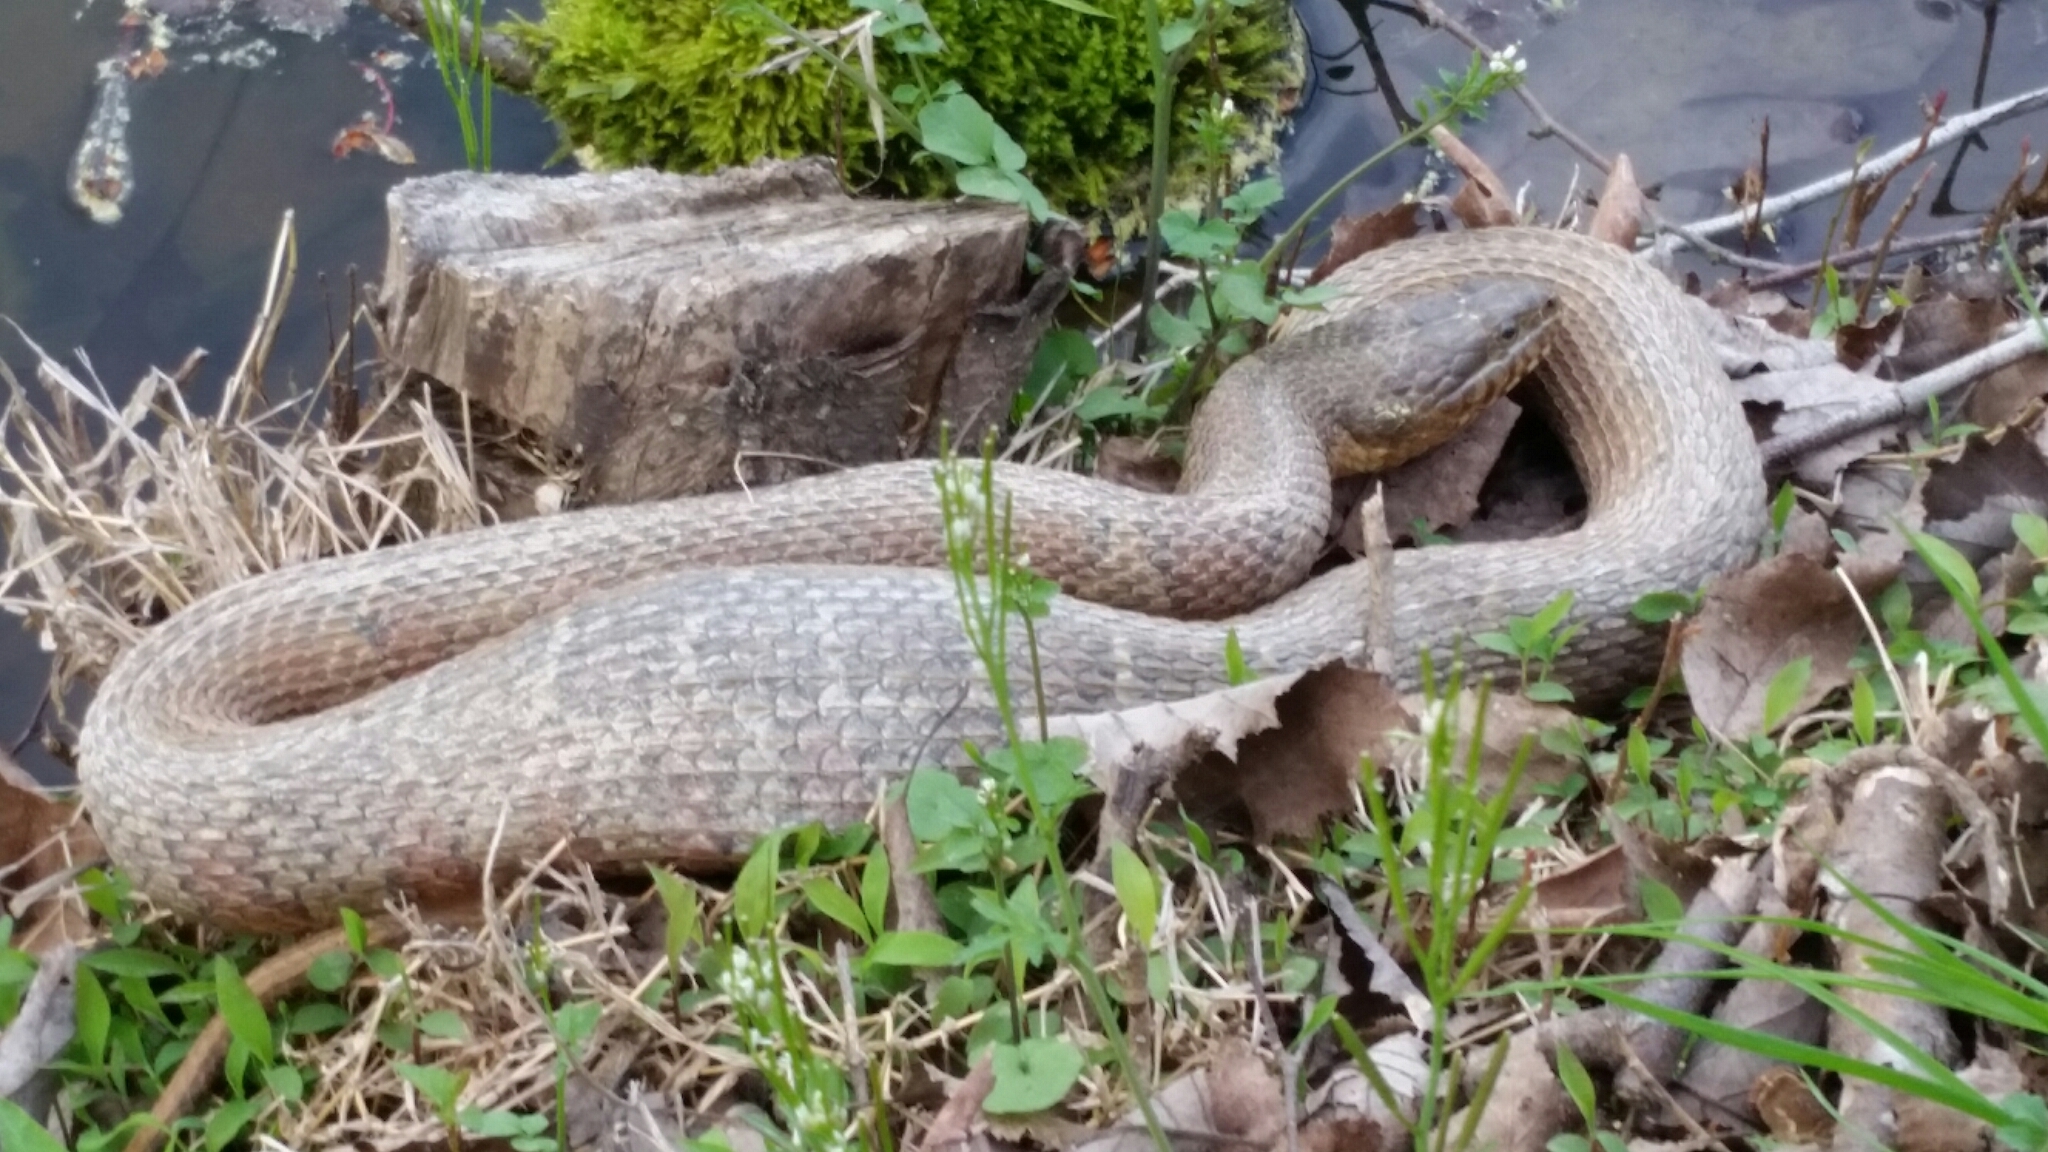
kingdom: Animalia
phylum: Chordata
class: Squamata
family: Colubridae
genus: Nerodia
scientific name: Nerodia sipedon
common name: Northern water snake
